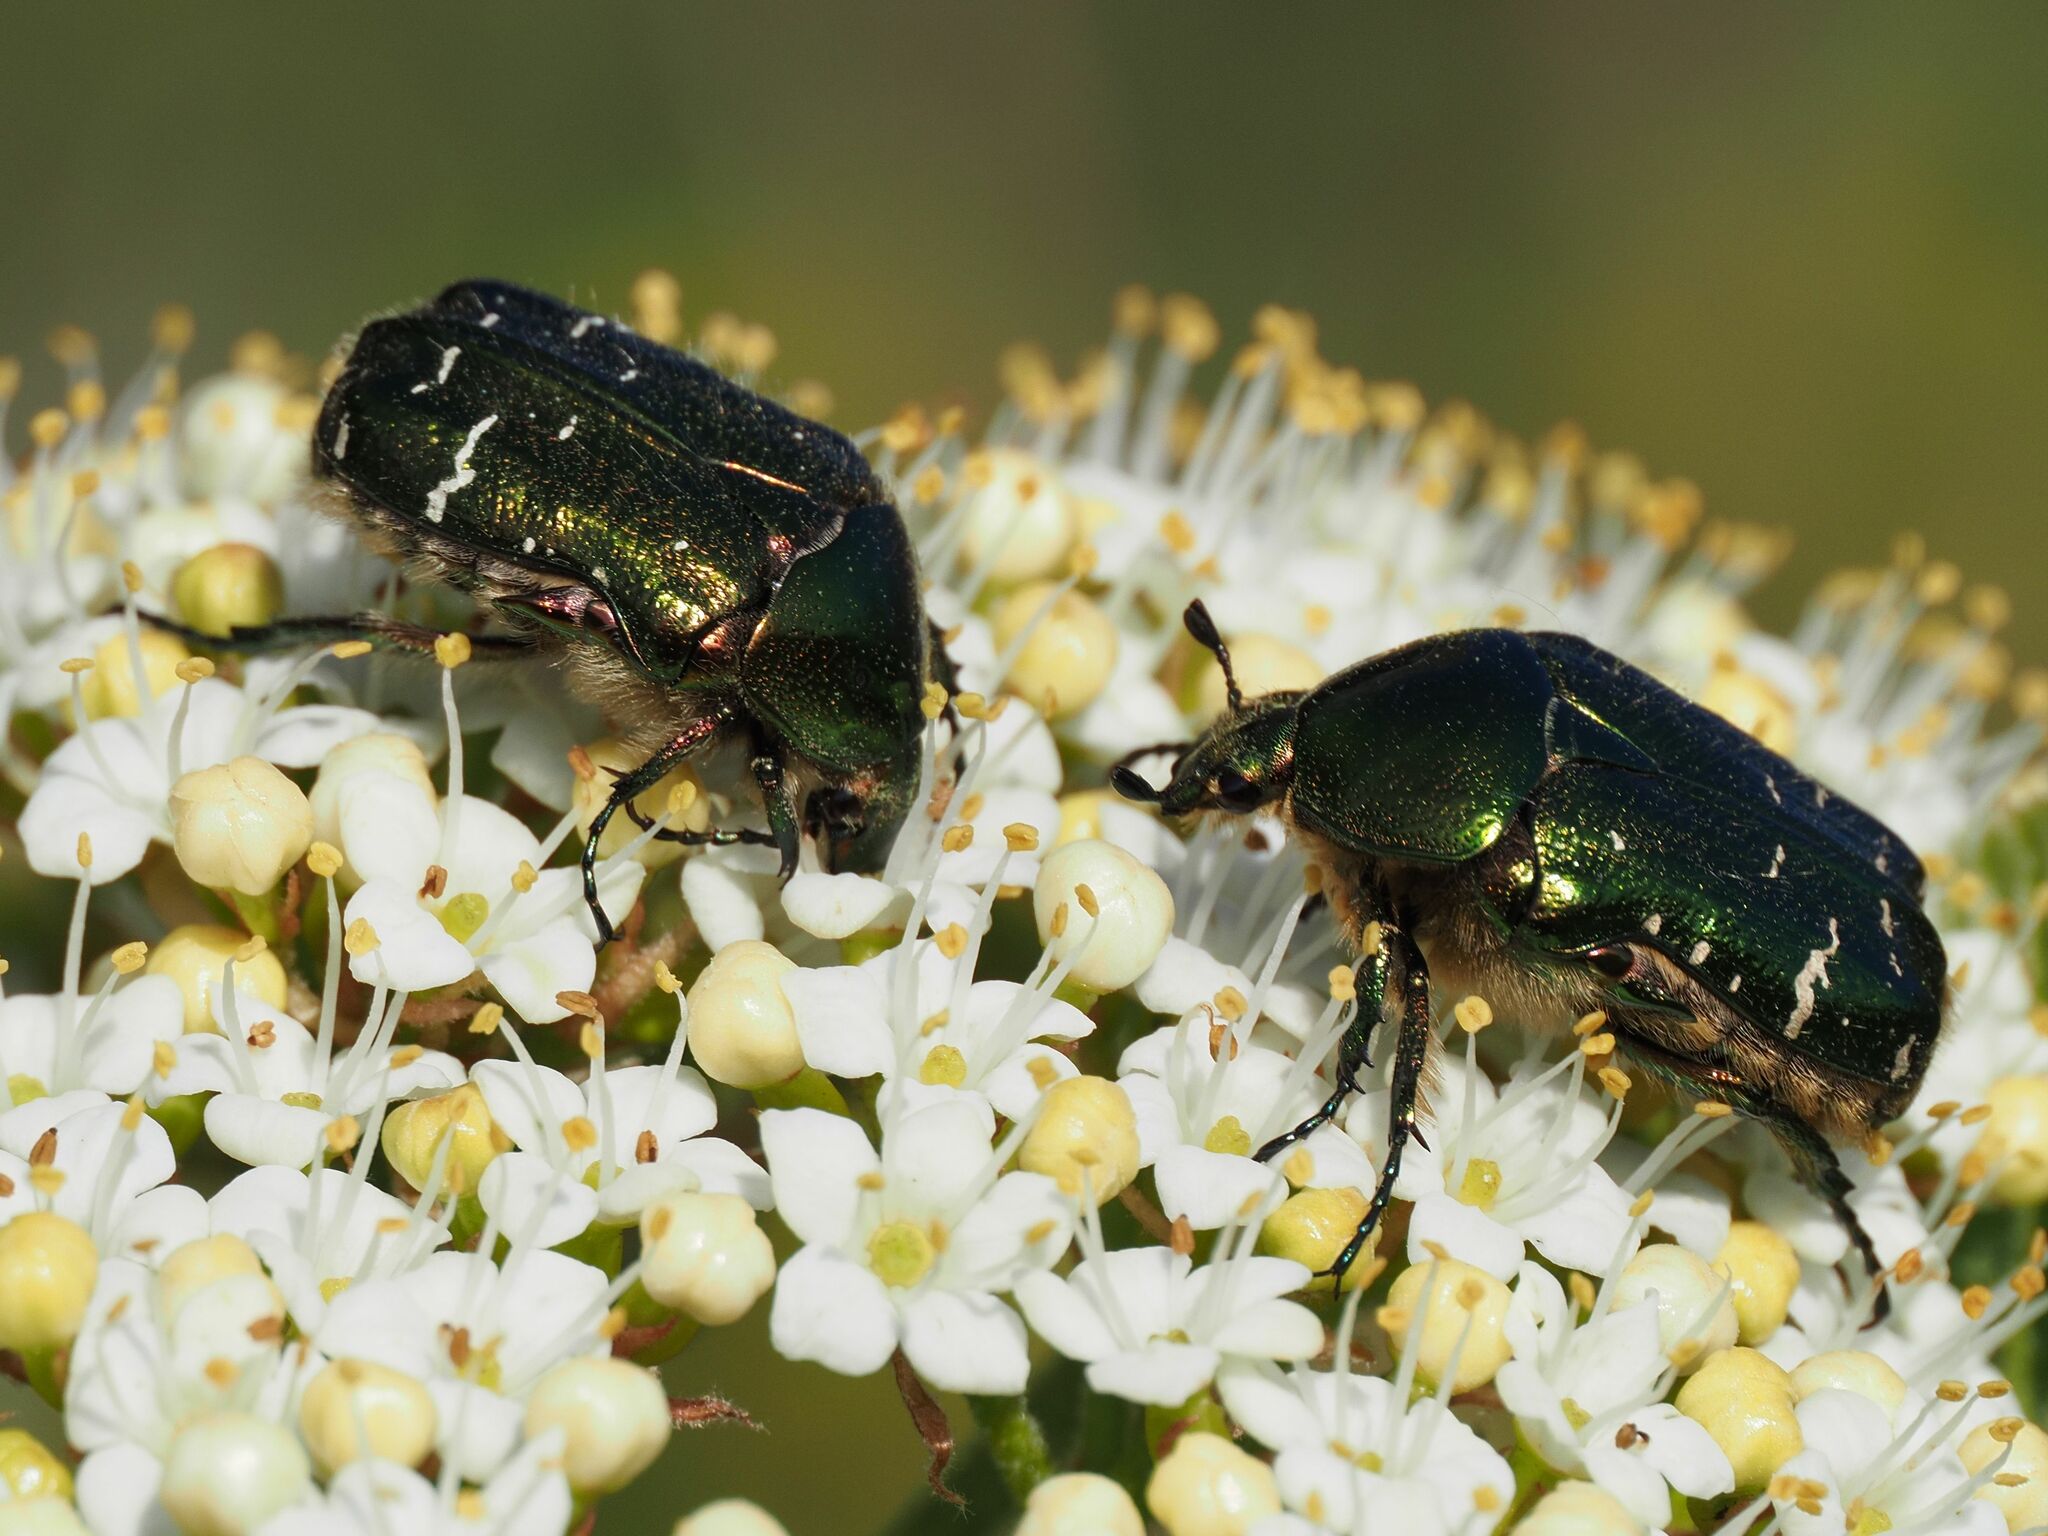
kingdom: Animalia
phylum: Arthropoda
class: Insecta
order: Coleoptera
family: Scarabaeidae
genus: Cetonia
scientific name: Cetonia aurata
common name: Rose chafer
